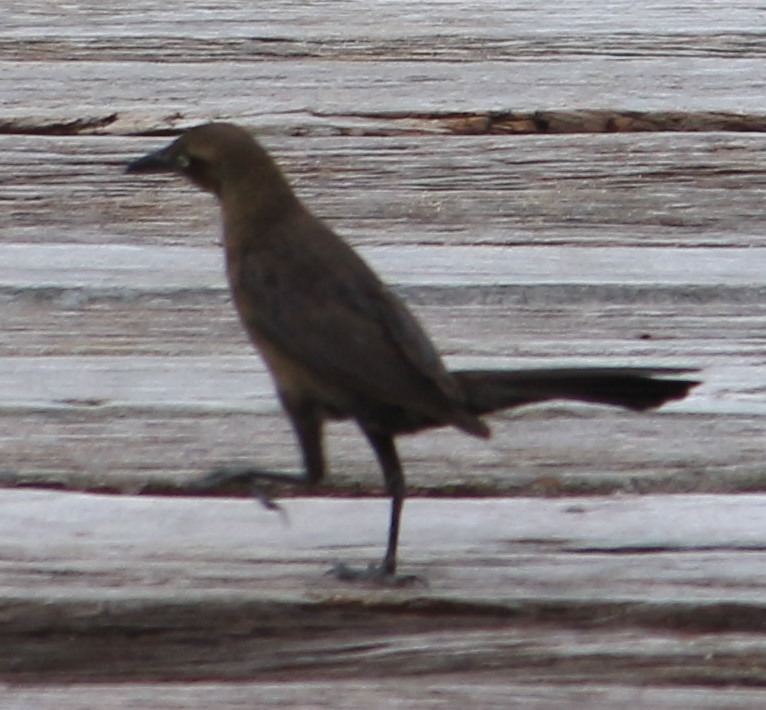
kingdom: Animalia
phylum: Chordata
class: Aves
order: Passeriformes
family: Icteridae
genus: Quiscalus
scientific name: Quiscalus mexicanus
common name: Great-tailed grackle
